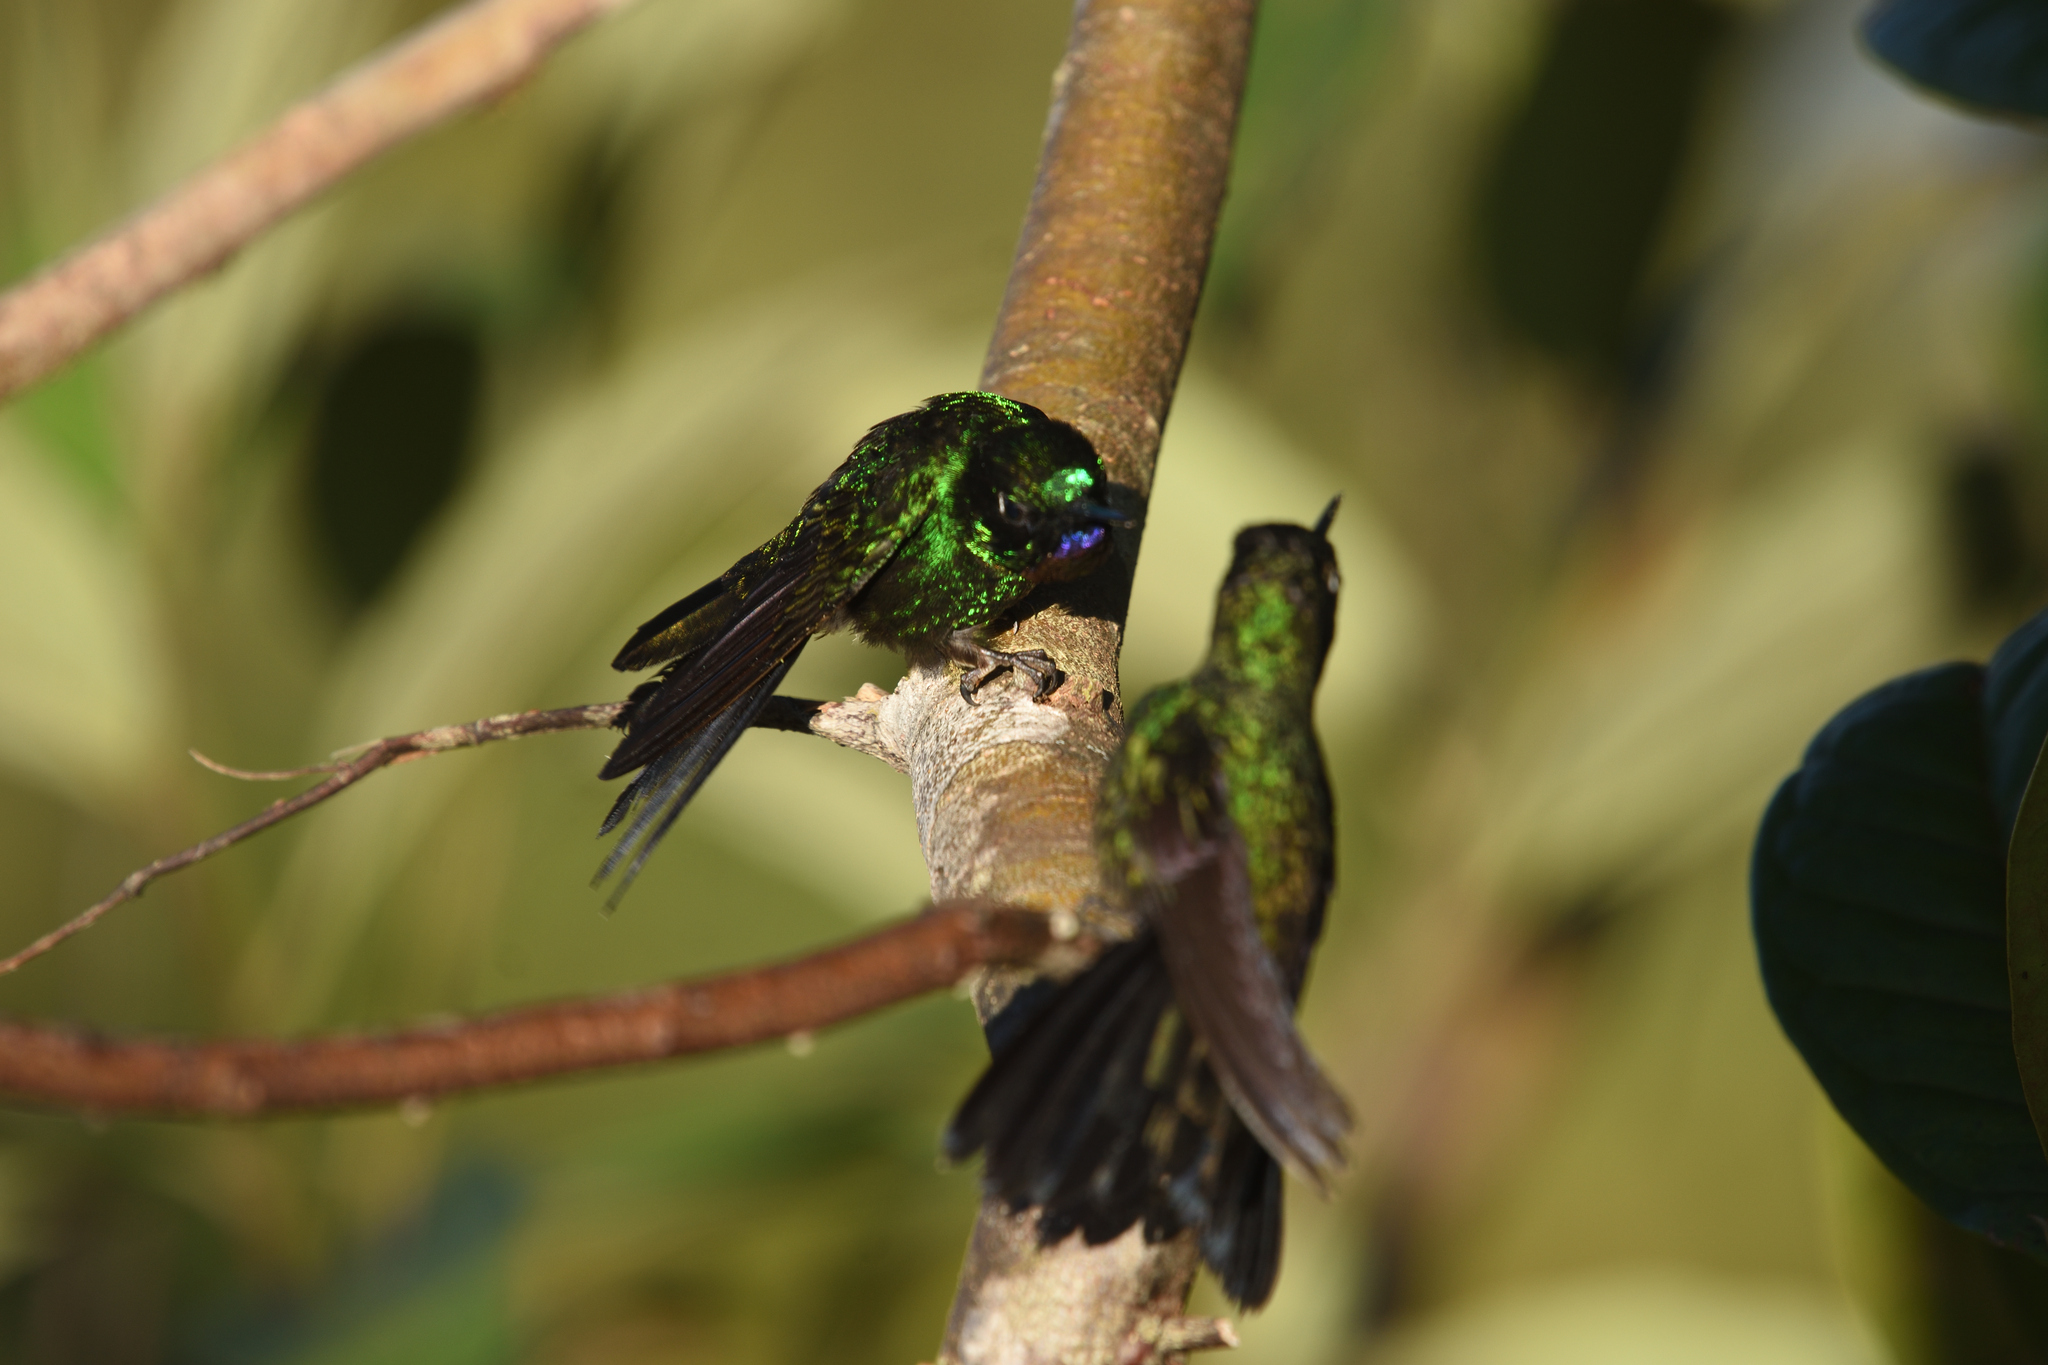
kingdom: Animalia
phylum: Chordata
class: Aves
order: Apodiformes
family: Trochilidae
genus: Heliangelus
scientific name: Heliangelus exortis
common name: Tourmaline sunangel
